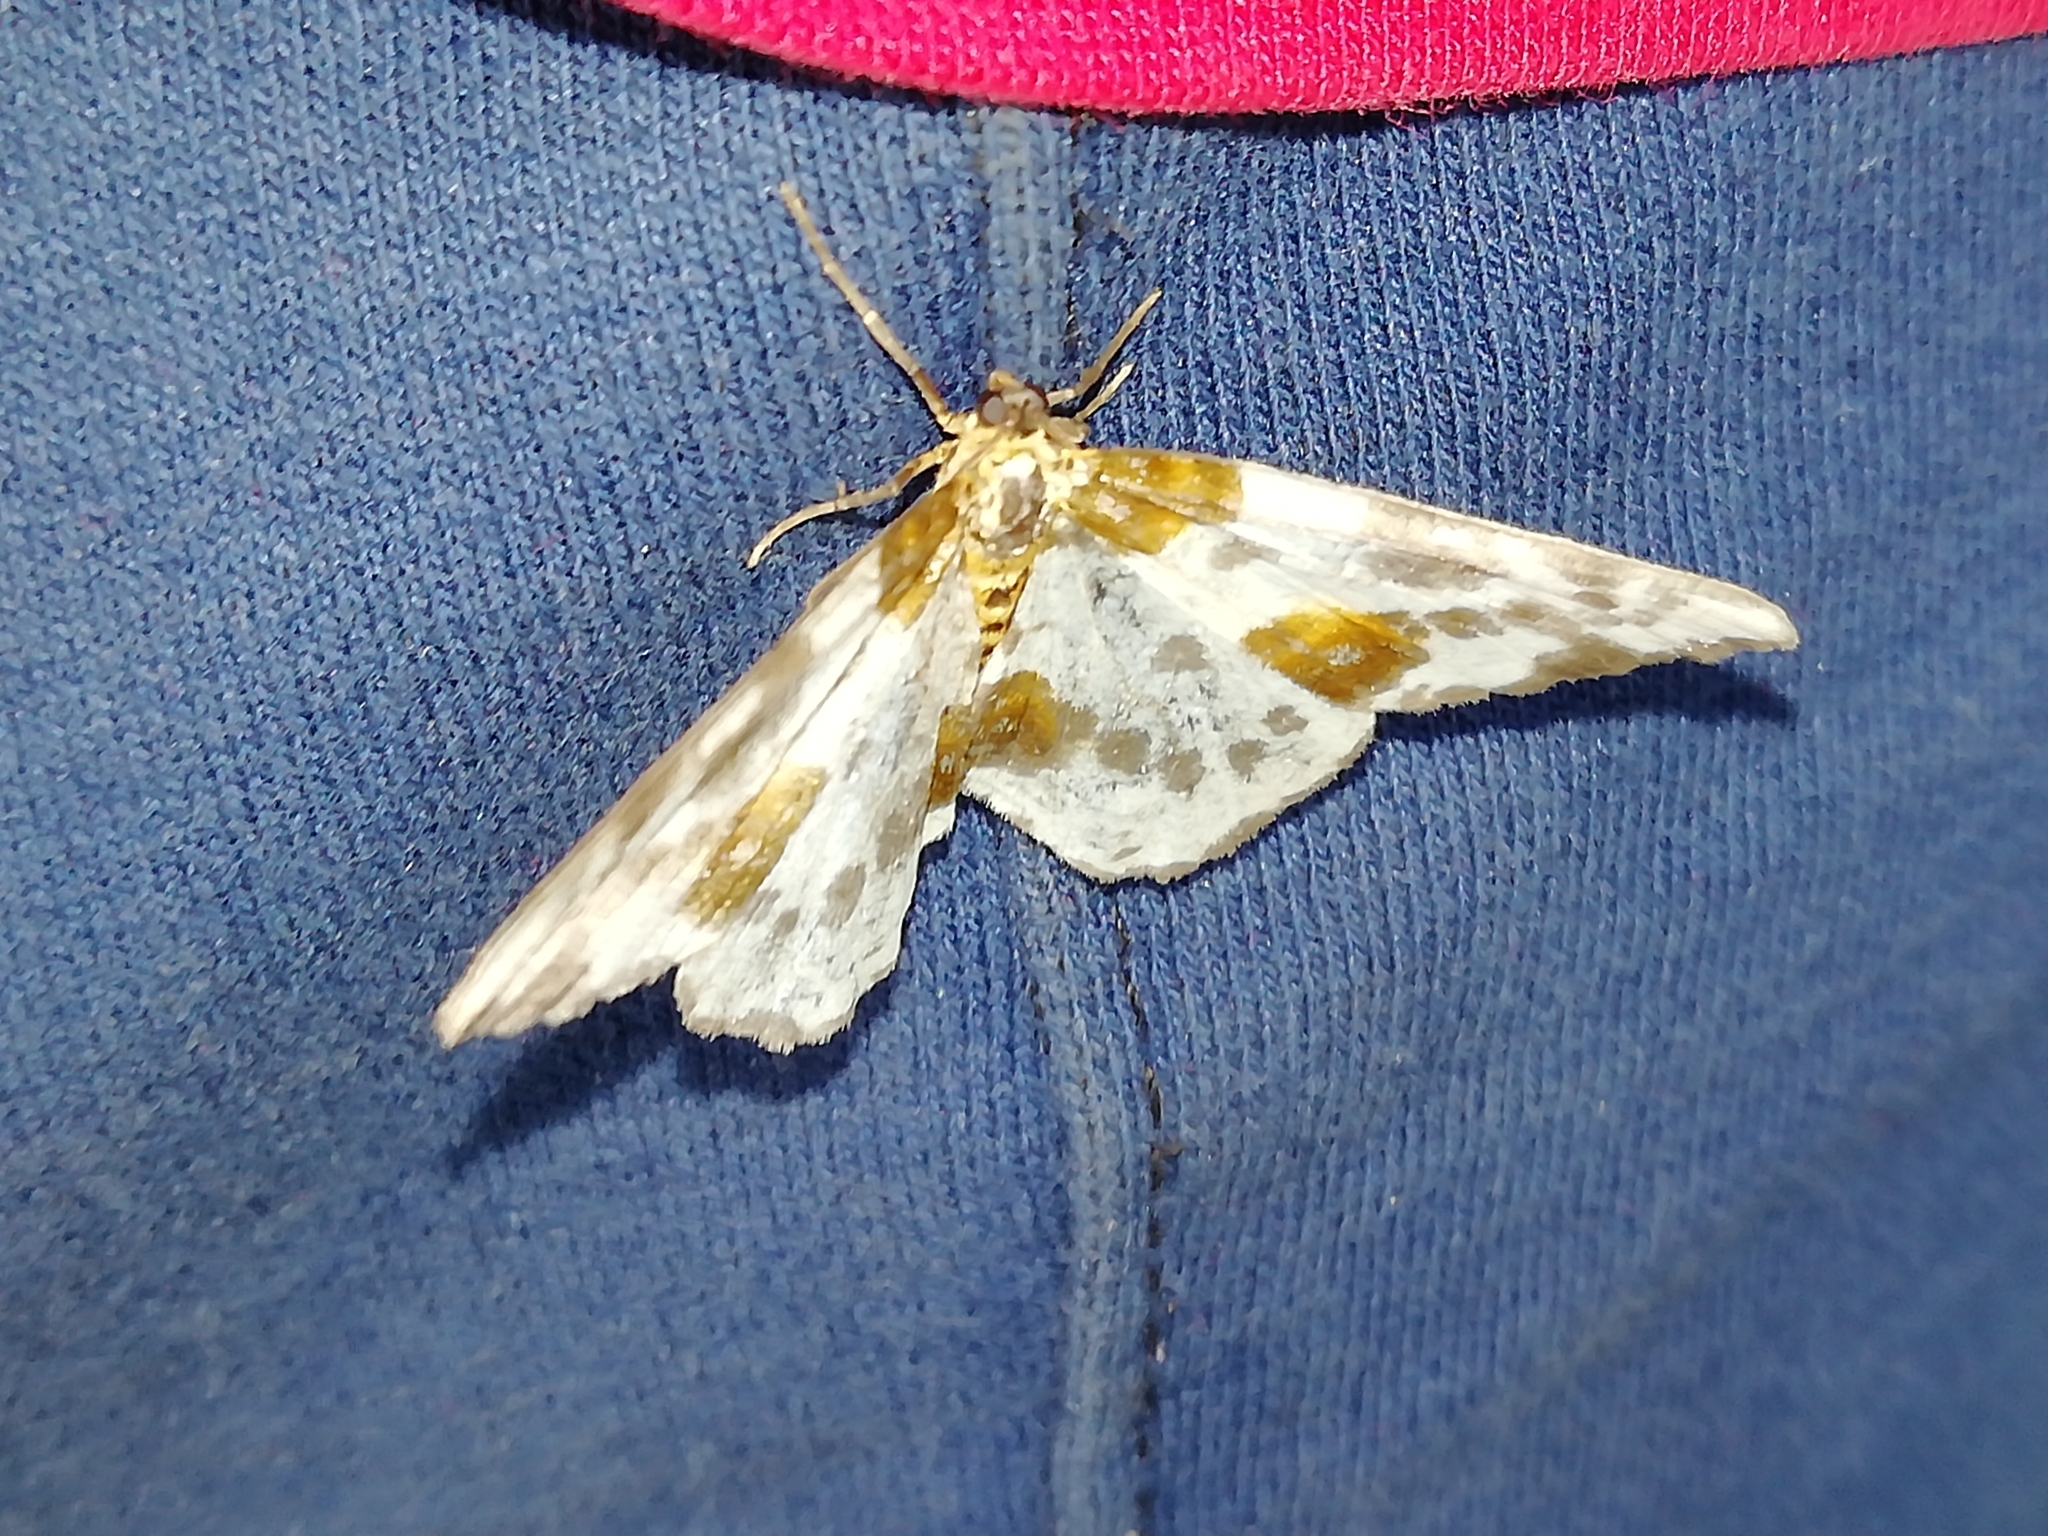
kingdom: Animalia
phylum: Arthropoda
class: Insecta
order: Lepidoptera
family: Geometridae
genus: Abraxas
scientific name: Abraxas sylvata
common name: Clouded magpie
